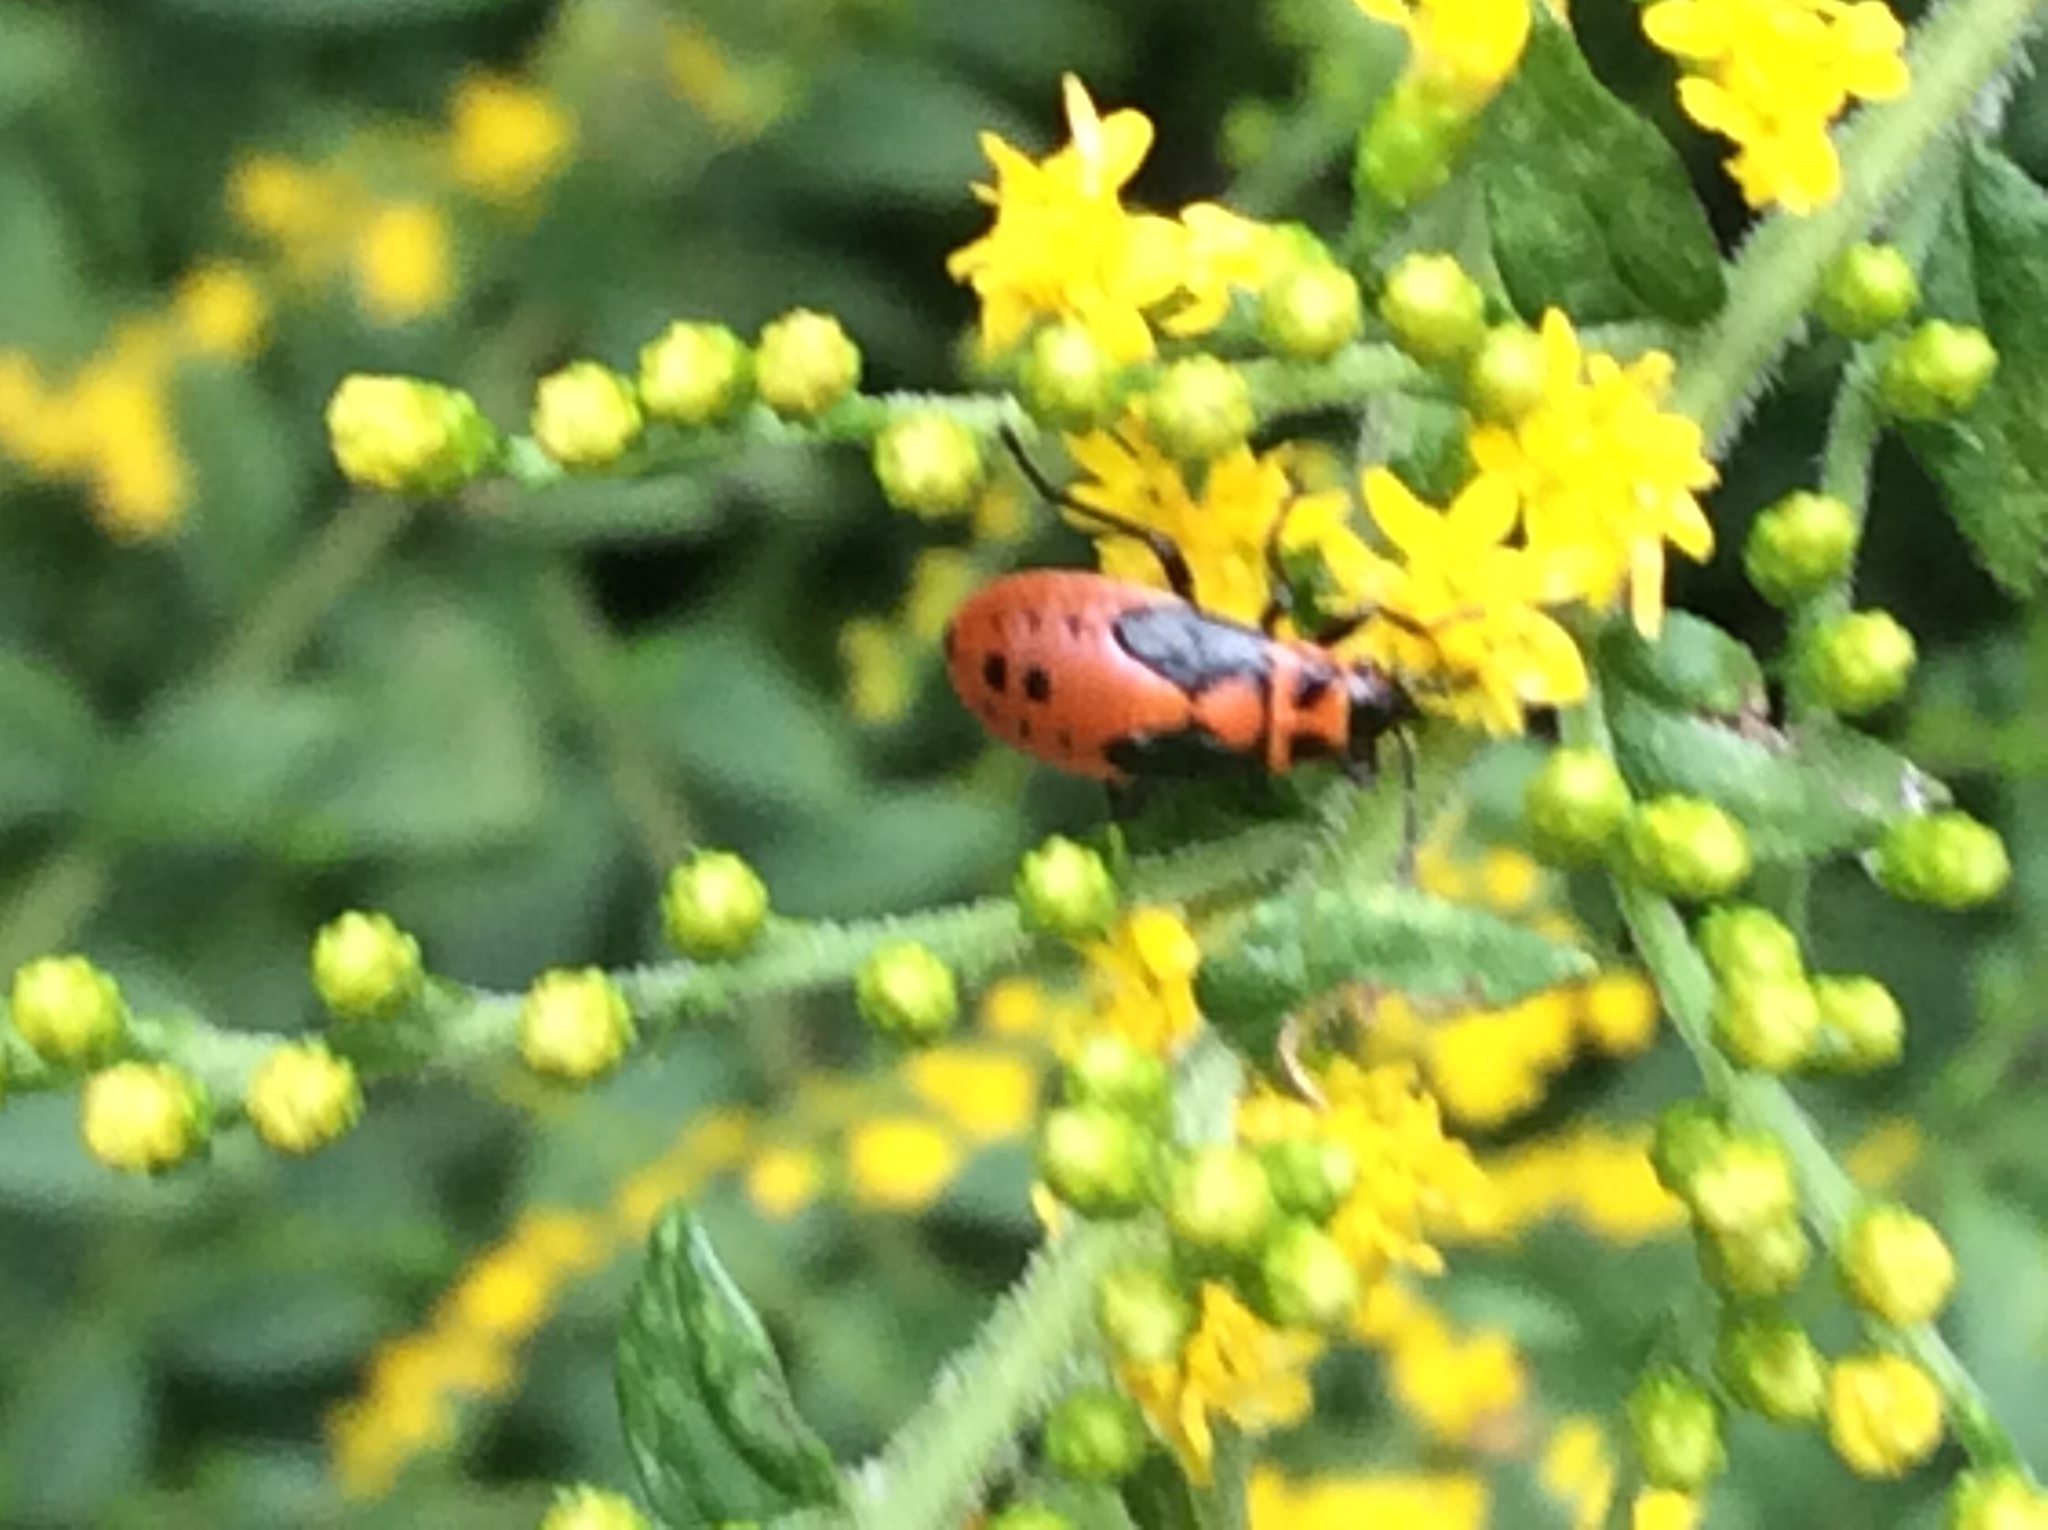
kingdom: Animalia
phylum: Arthropoda
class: Insecta
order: Hemiptera
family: Lygaeidae
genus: Lygaeus
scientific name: Lygaeus kalmii
